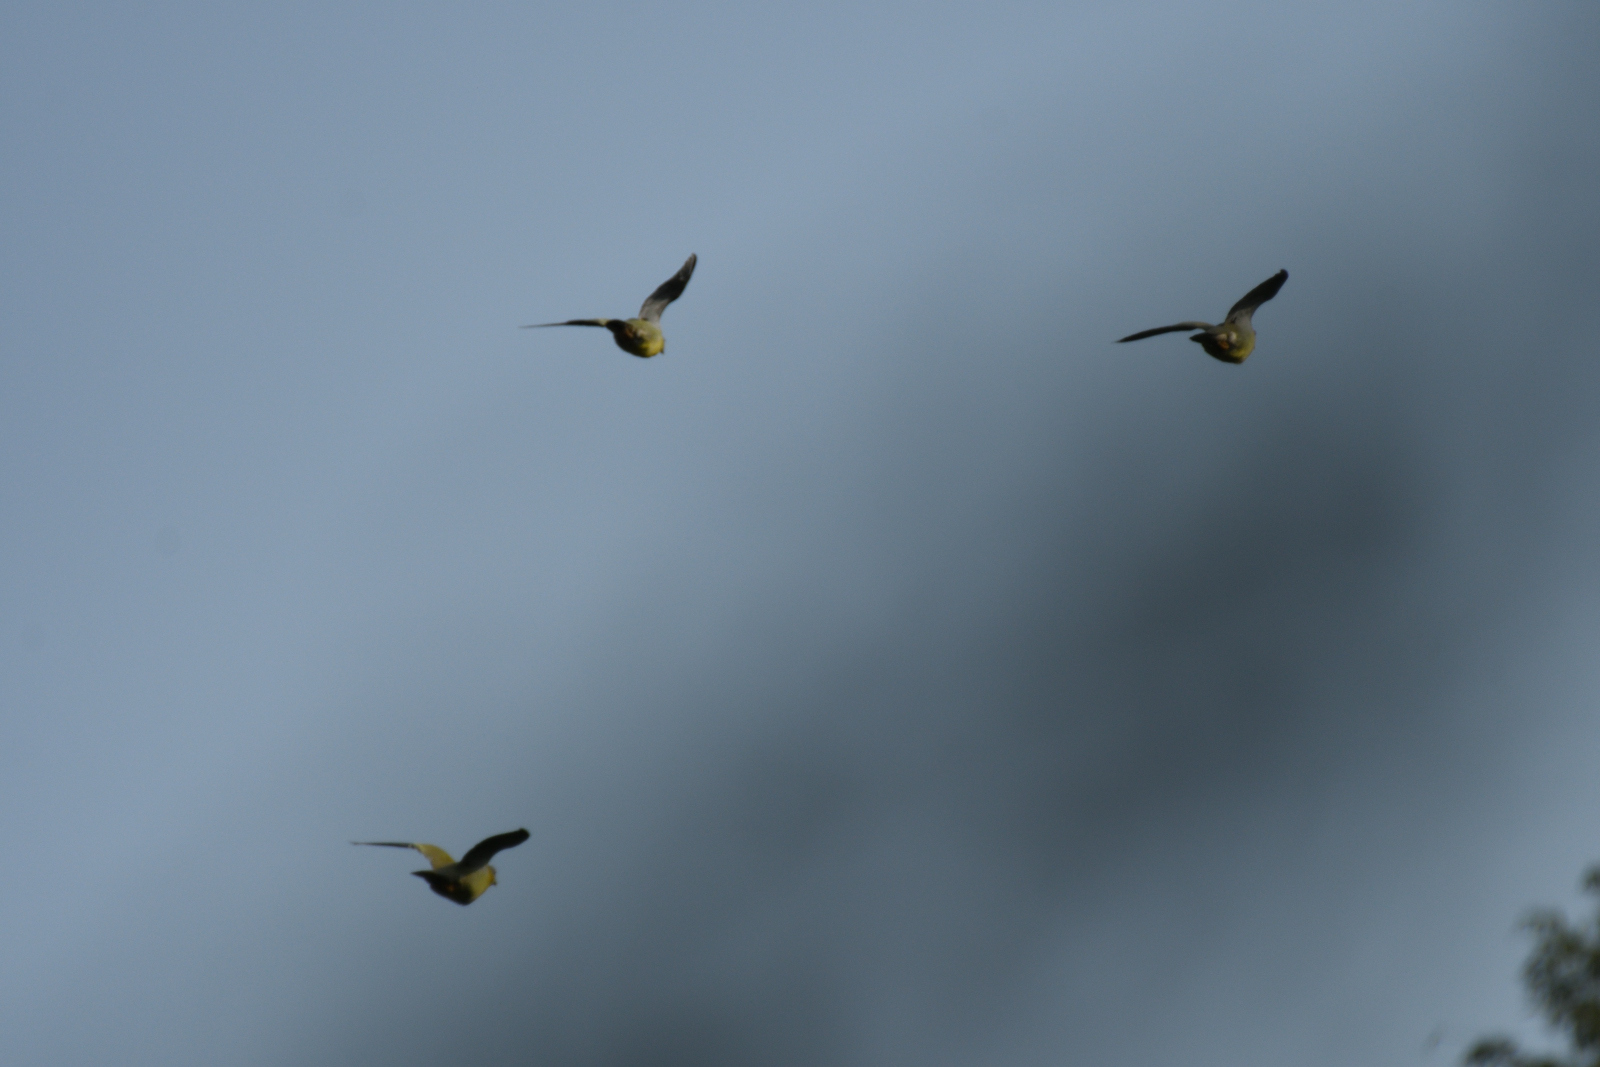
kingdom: Animalia
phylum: Chordata
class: Aves
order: Columbiformes
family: Columbidae
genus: Treron
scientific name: Treron phoenicopterus
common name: Yellow-footed green pigeon
